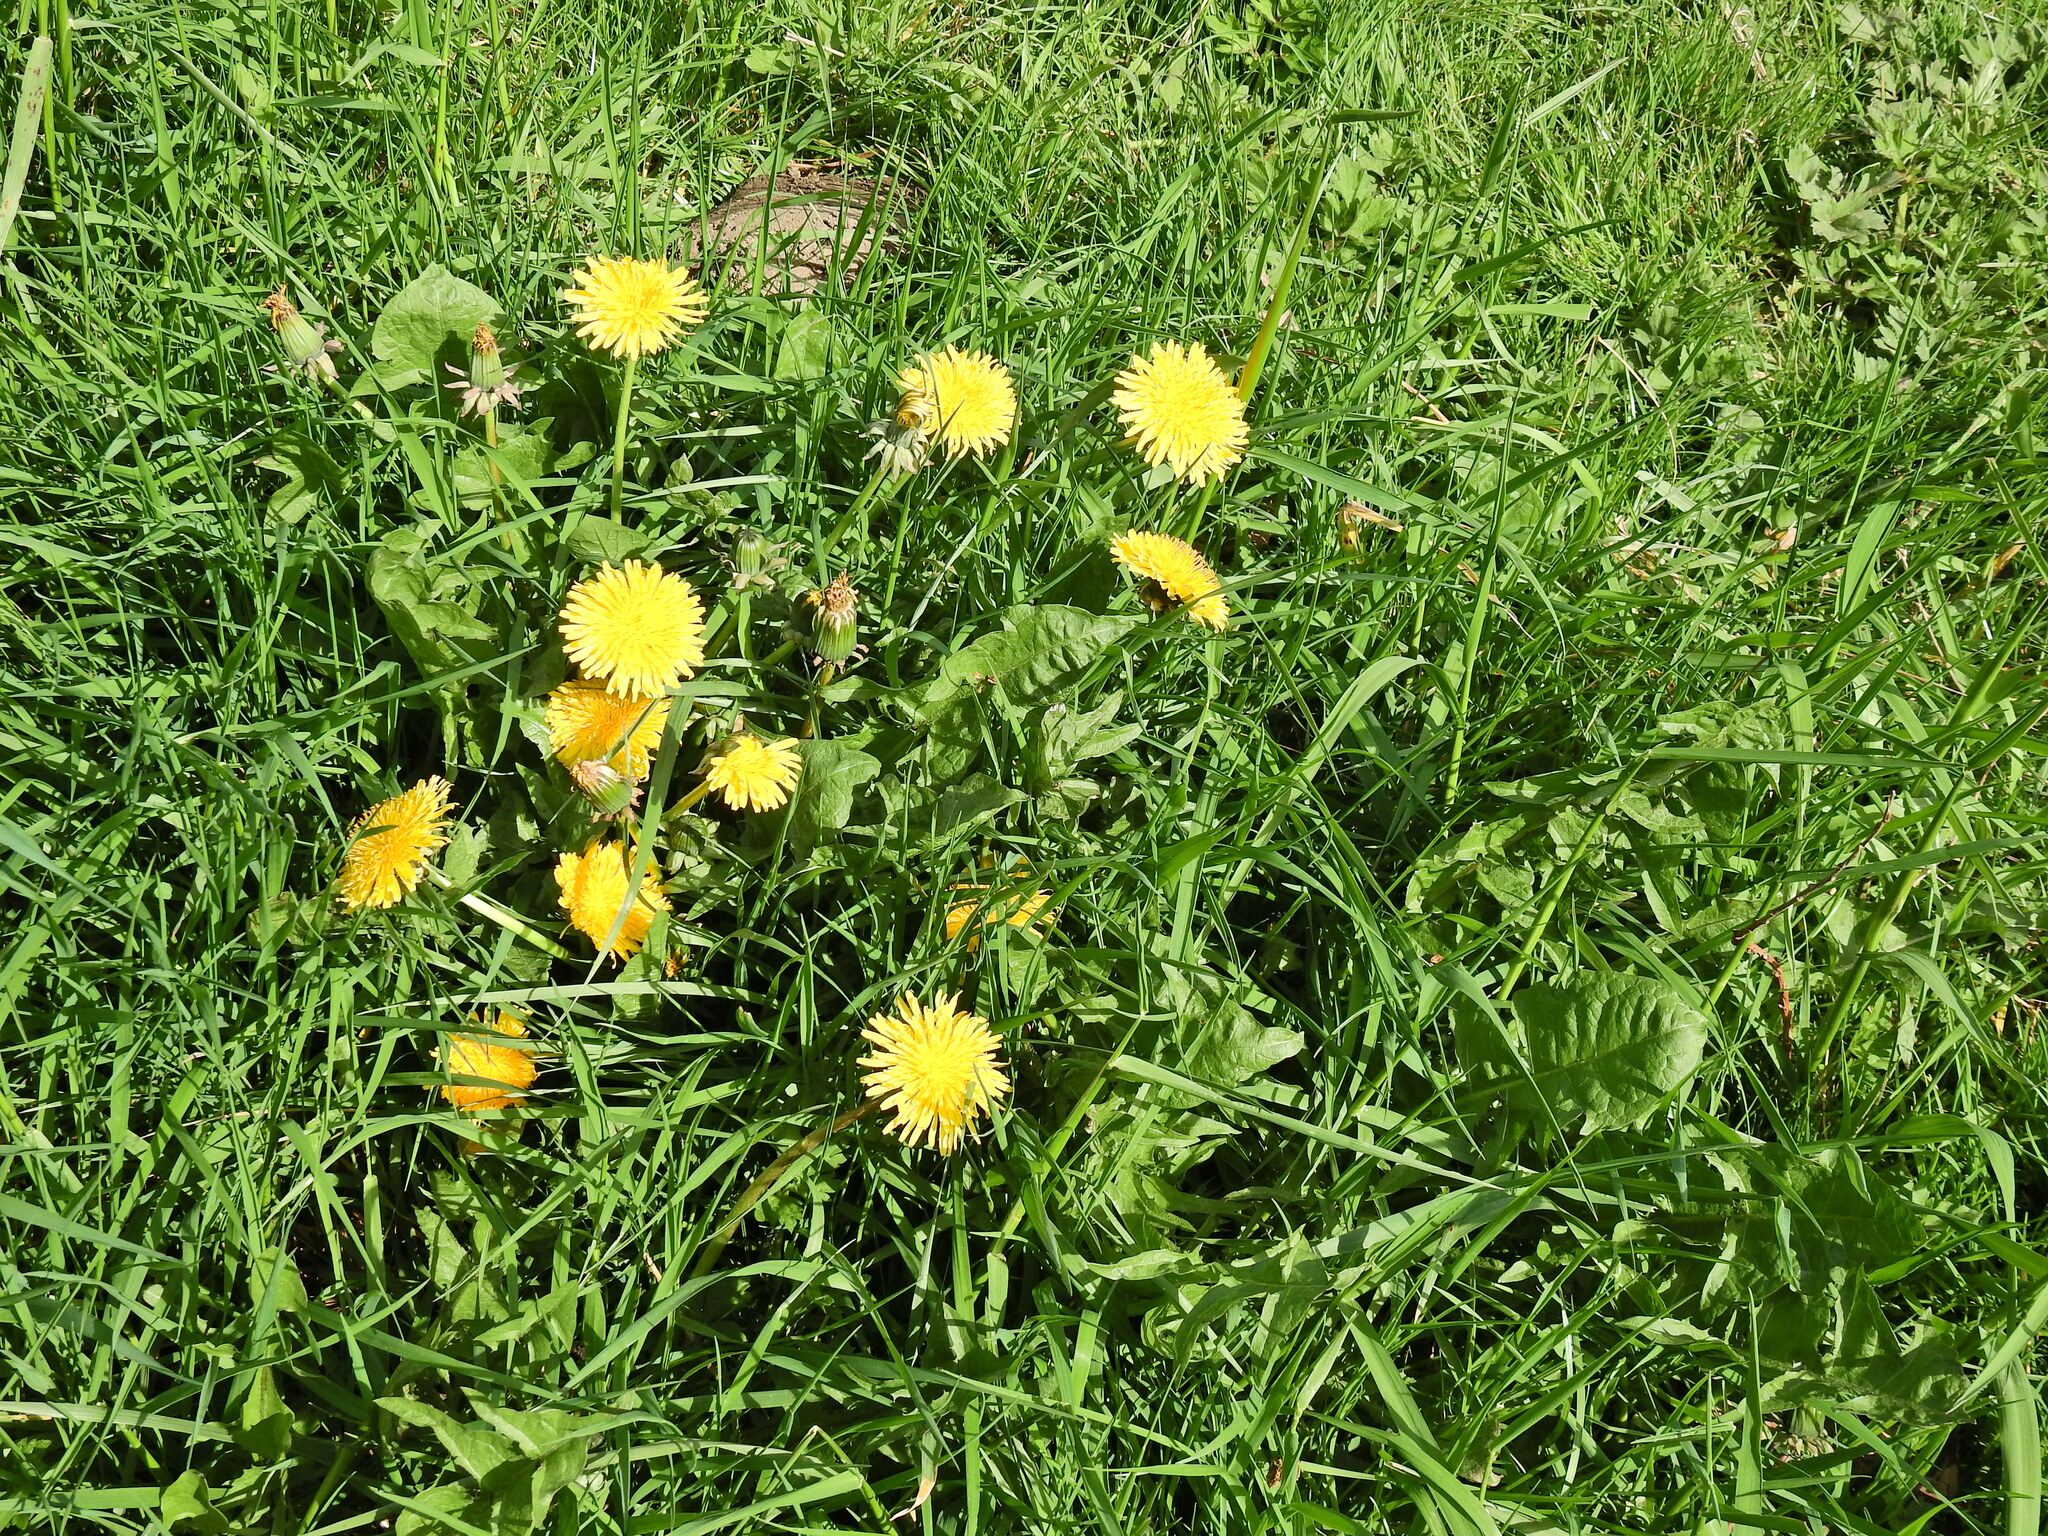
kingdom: Plantae
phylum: Tracheophyta
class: Magnoliopsida
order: Asterales
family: Asteraceae
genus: Taraxacum
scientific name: Taraxacum officinale
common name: Common dandelion
